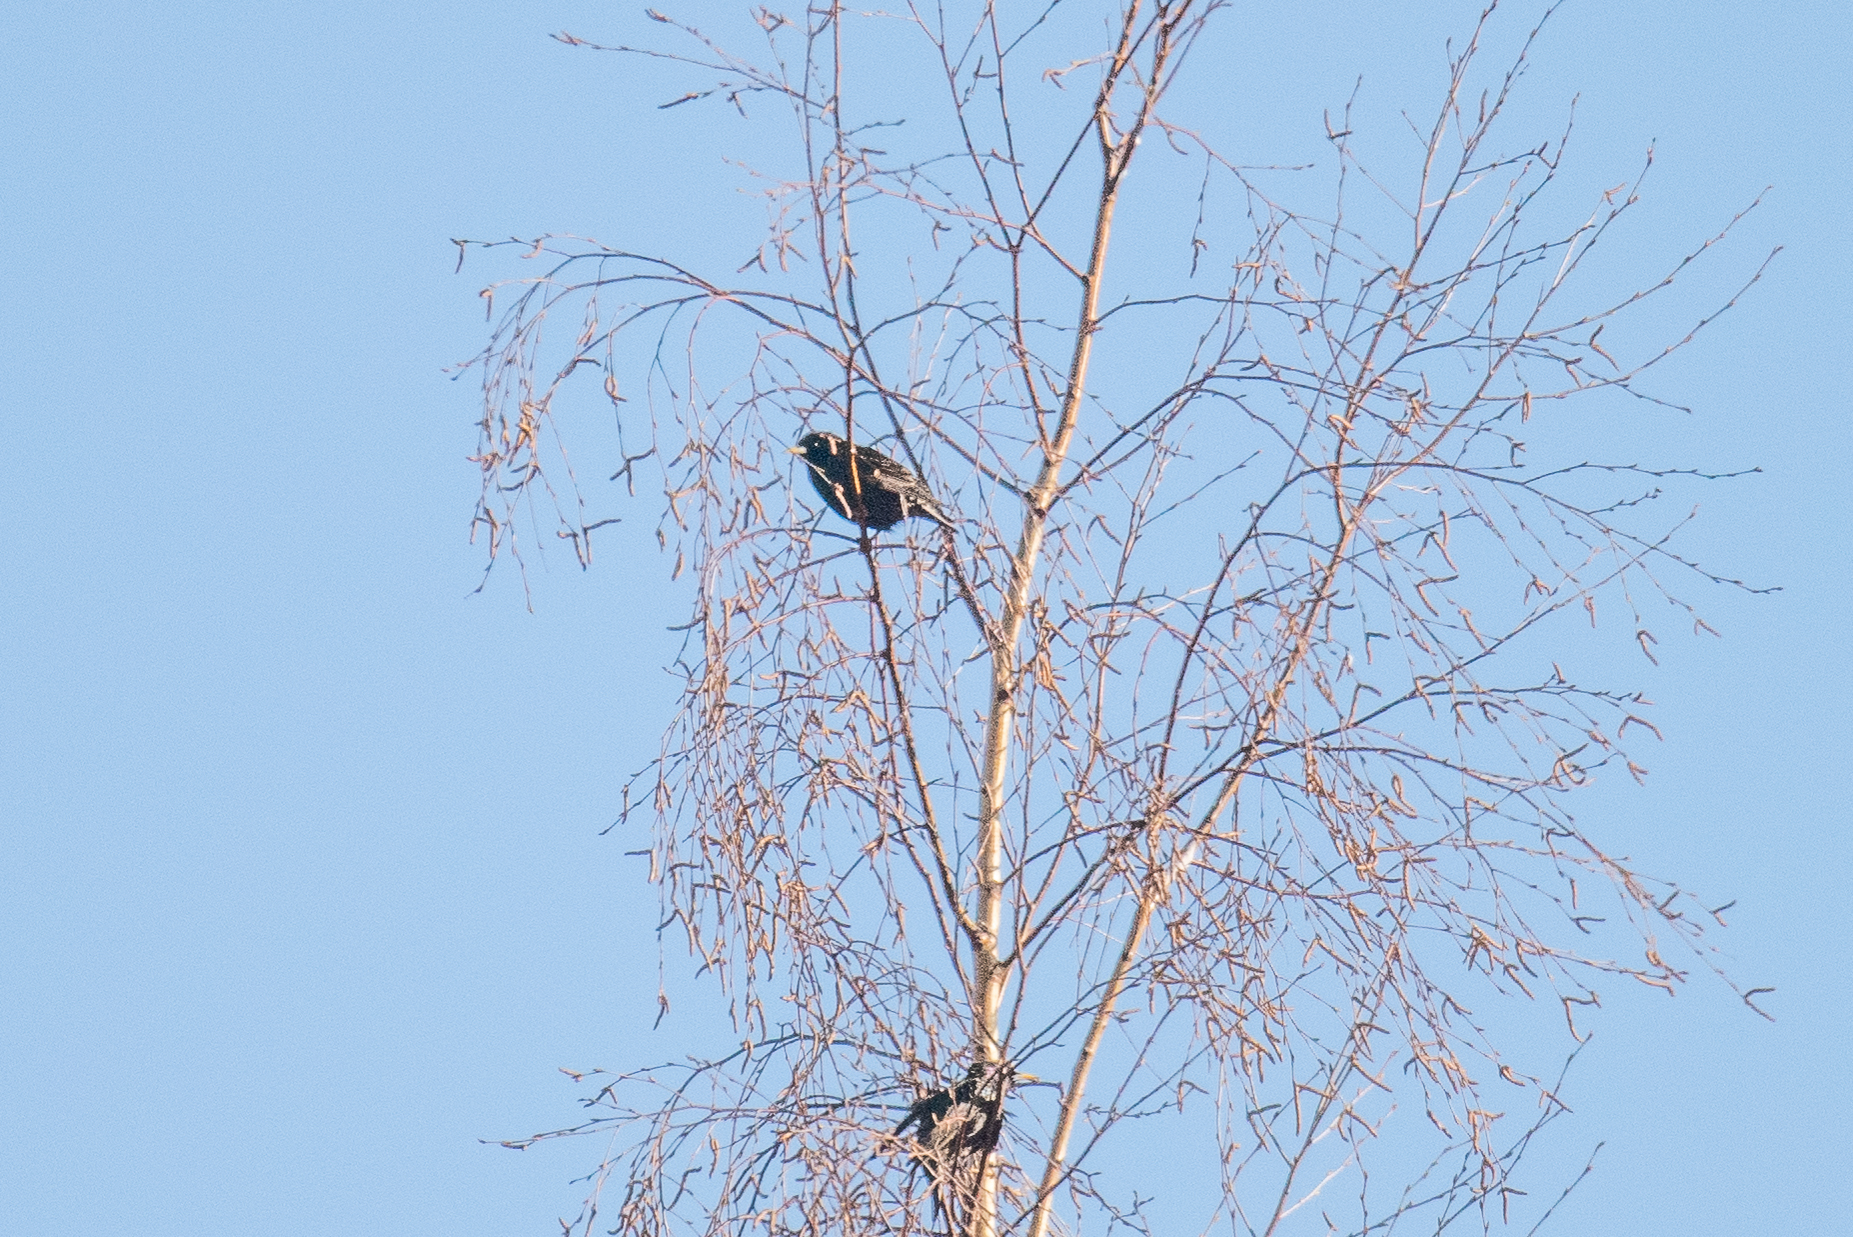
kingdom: Animalia
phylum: Chordata
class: Aves
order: Passeriformes
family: Sturnidae
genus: Sturnus
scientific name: Sturnus vulgaris
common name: Common starling
